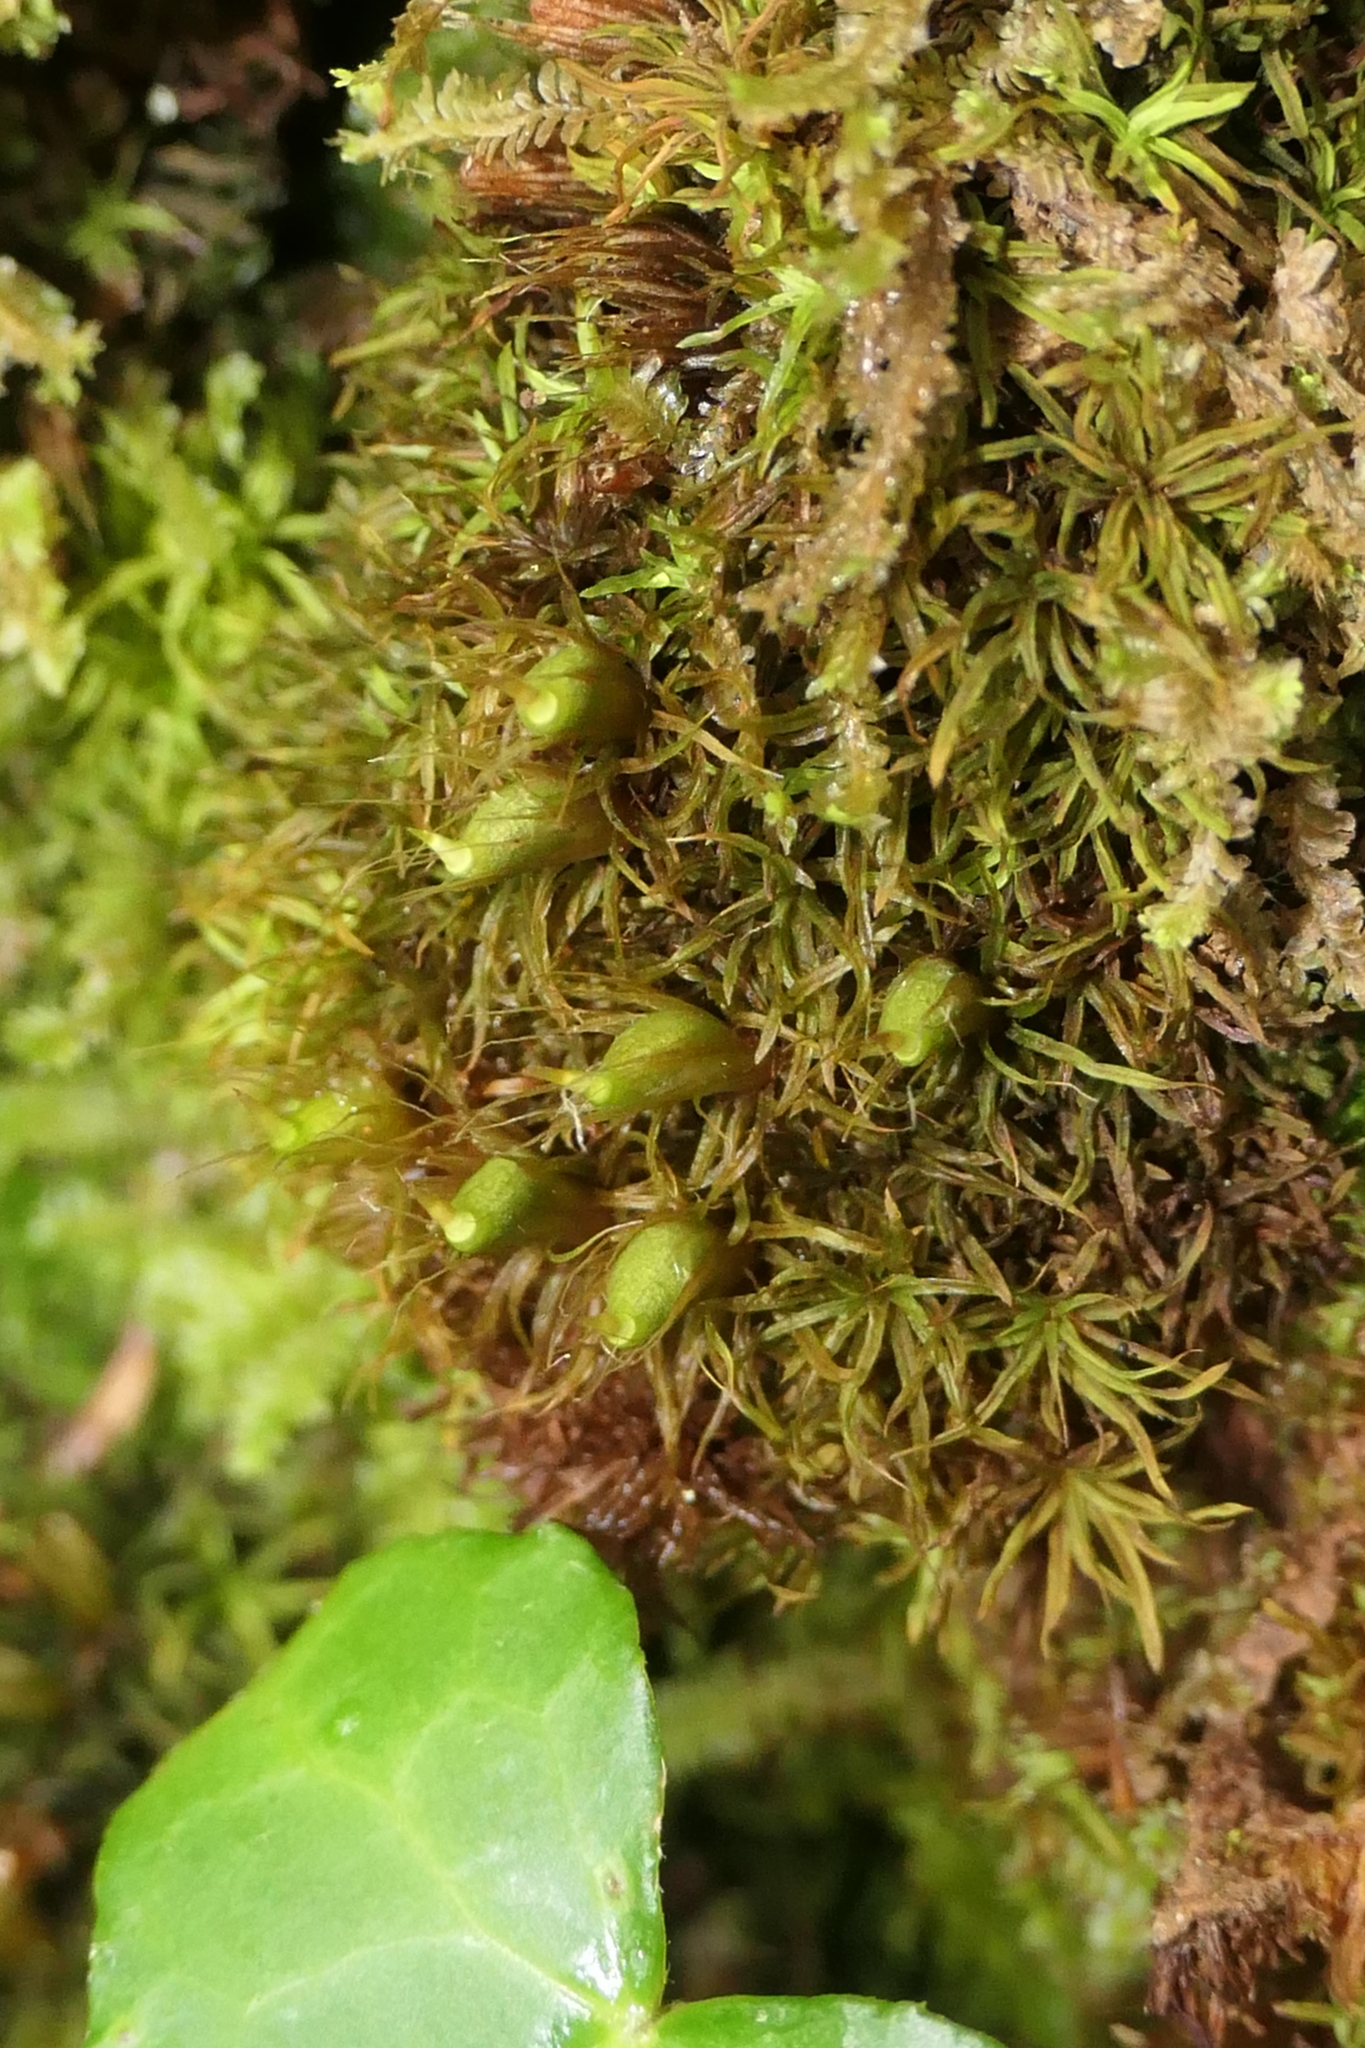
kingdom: Plantae
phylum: Bryophyta
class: Bryopsida
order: Diphysciales
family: Diphysciaceae
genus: Diphyscium
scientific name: Diphyscium foliosum
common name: Nut moss
